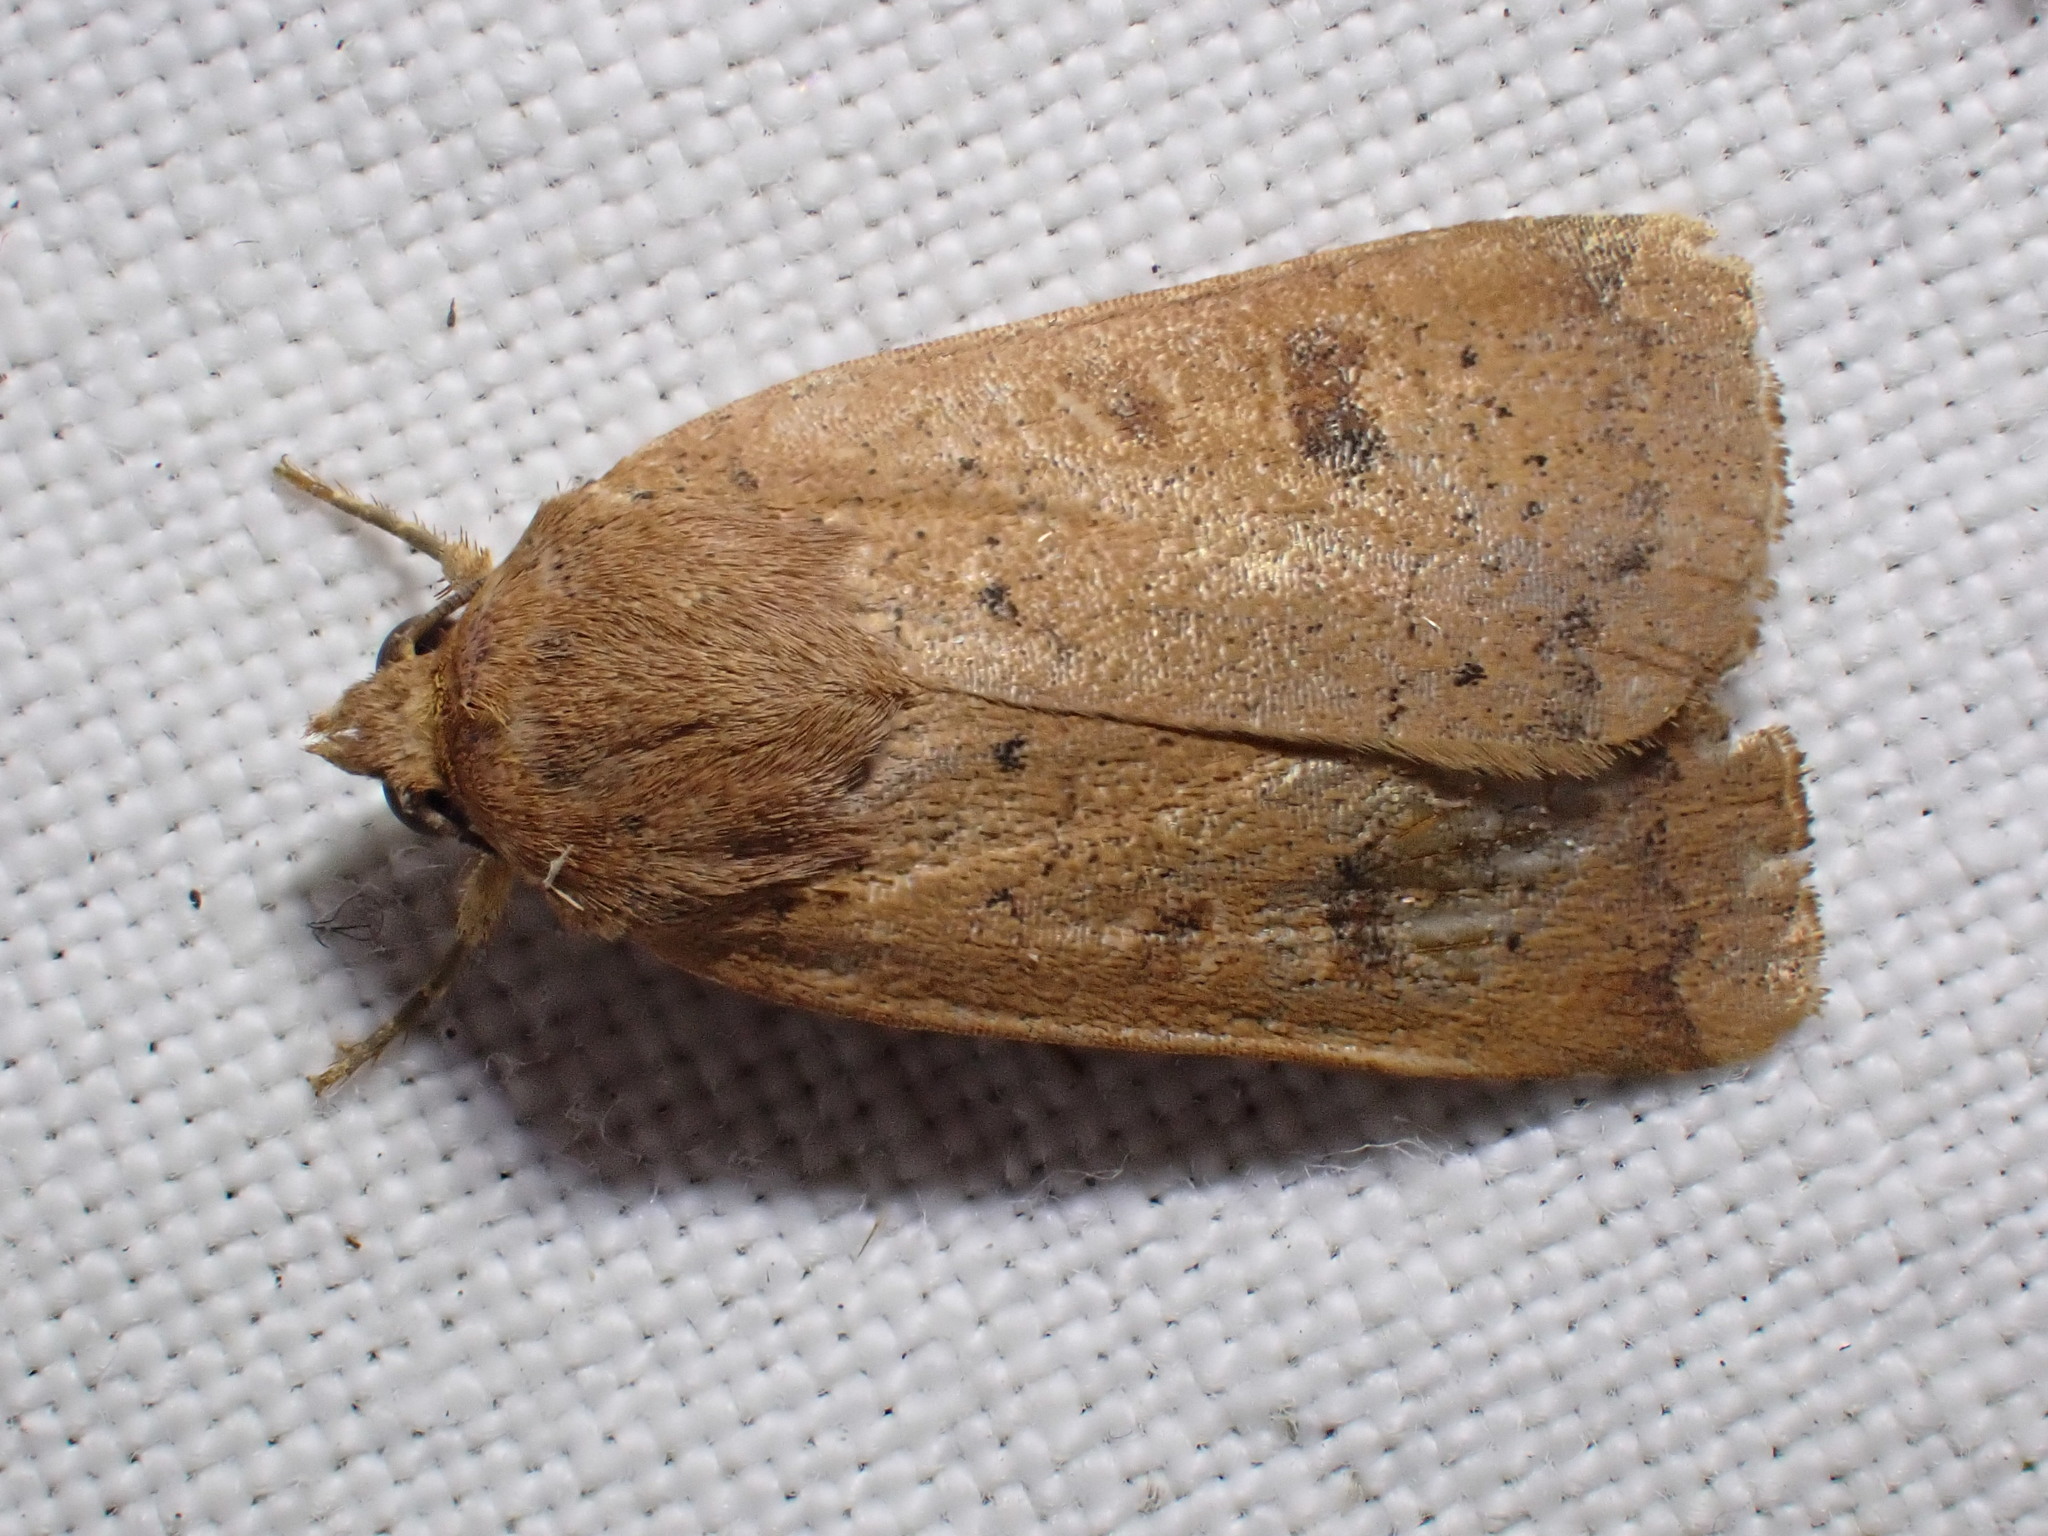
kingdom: Animalia
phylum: Arthropoda
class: Insecta
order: Lepidoptera
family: Noctuidae
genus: Noctua
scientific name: Noctua comes
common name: Lesser yellow underwing
